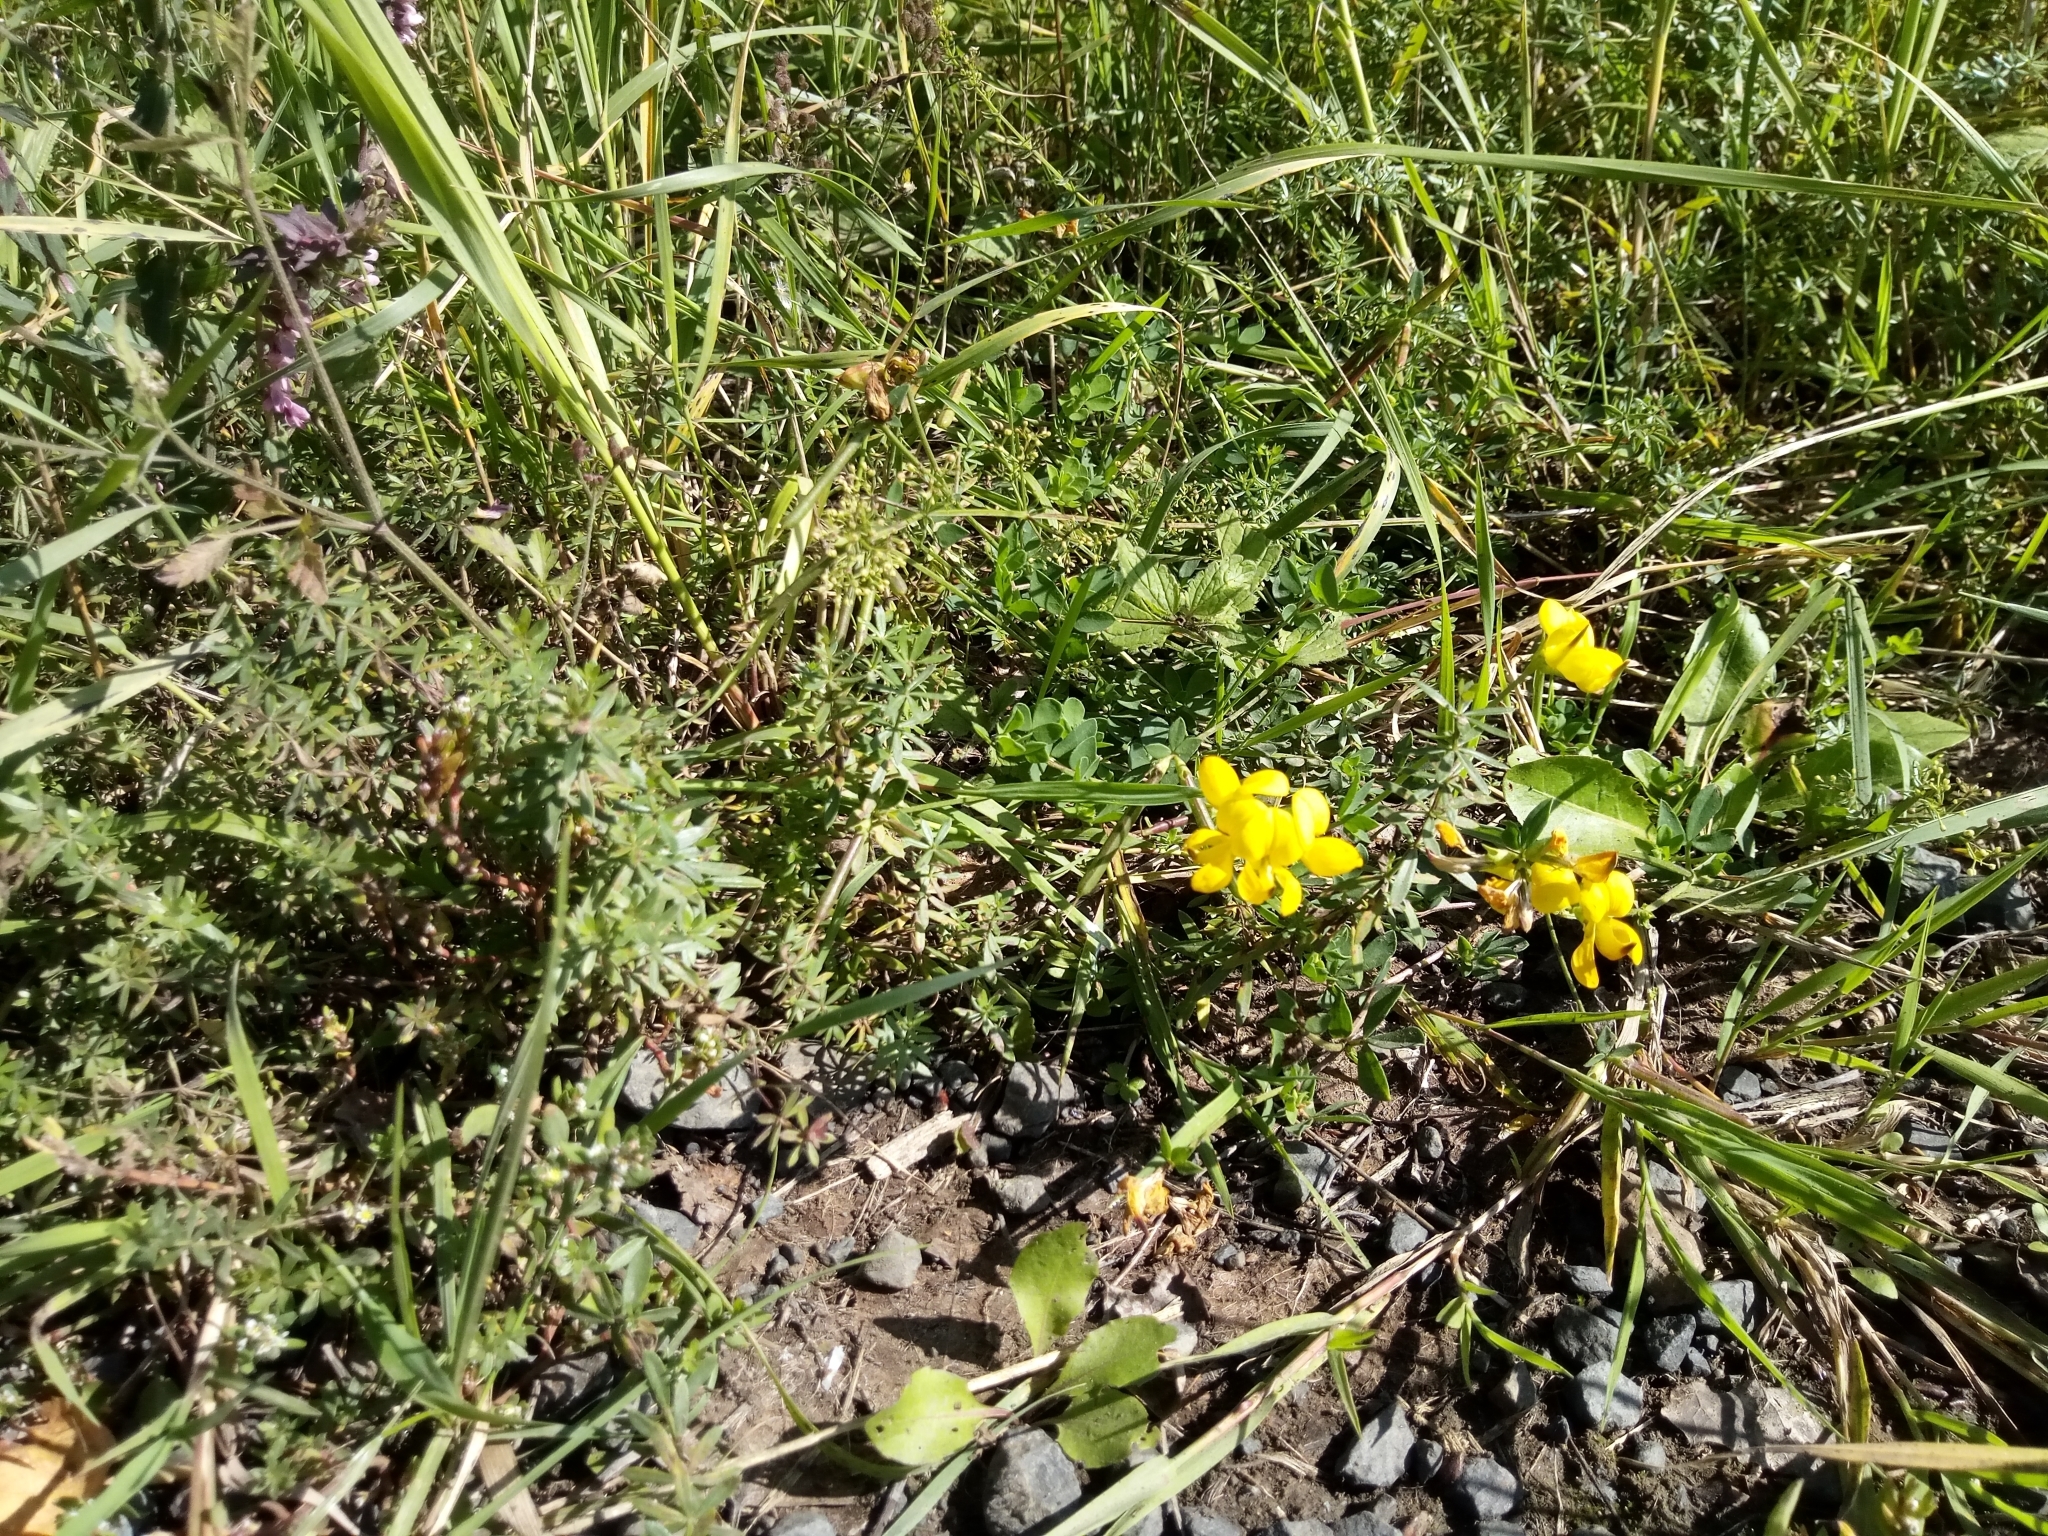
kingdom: Plantae
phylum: Tracheophyta
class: Magnoliopsida
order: Fabales
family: Fabaceae
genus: Lotus
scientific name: Lotus corniculatus
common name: Common bird's-foot-trefoil
